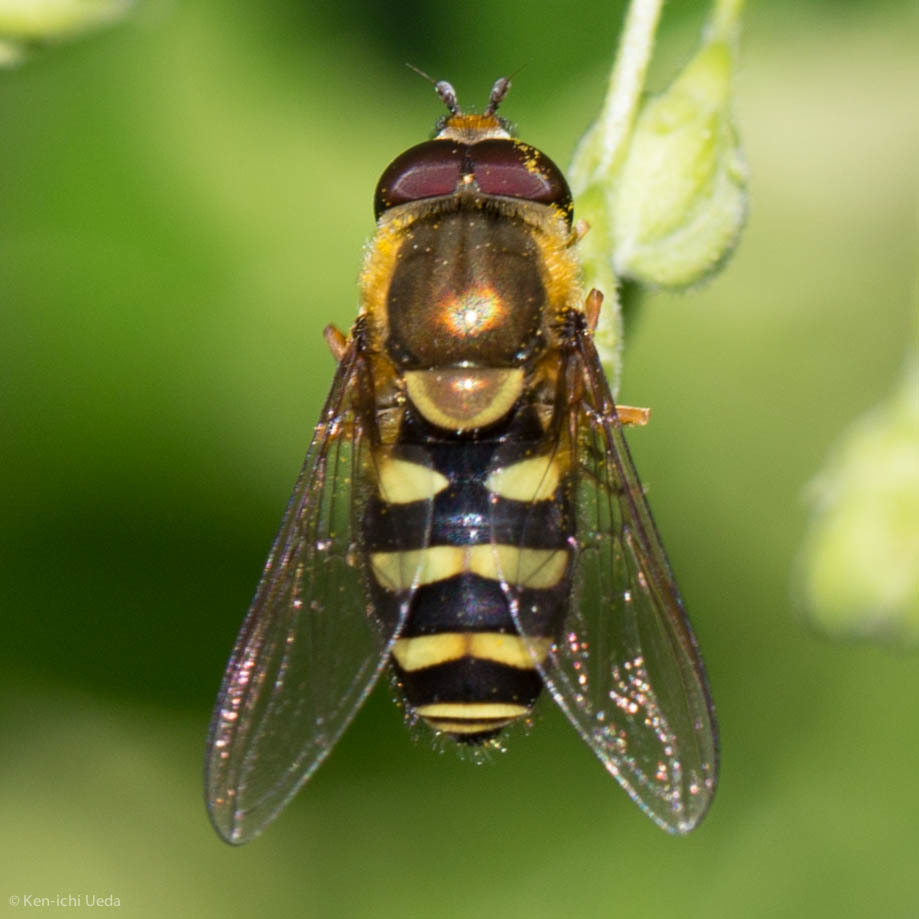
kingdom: Animalia
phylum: Arthropoda
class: Insecta
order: Diptera
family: Syrphidae
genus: Syrphus
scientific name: Syrphus opinator
